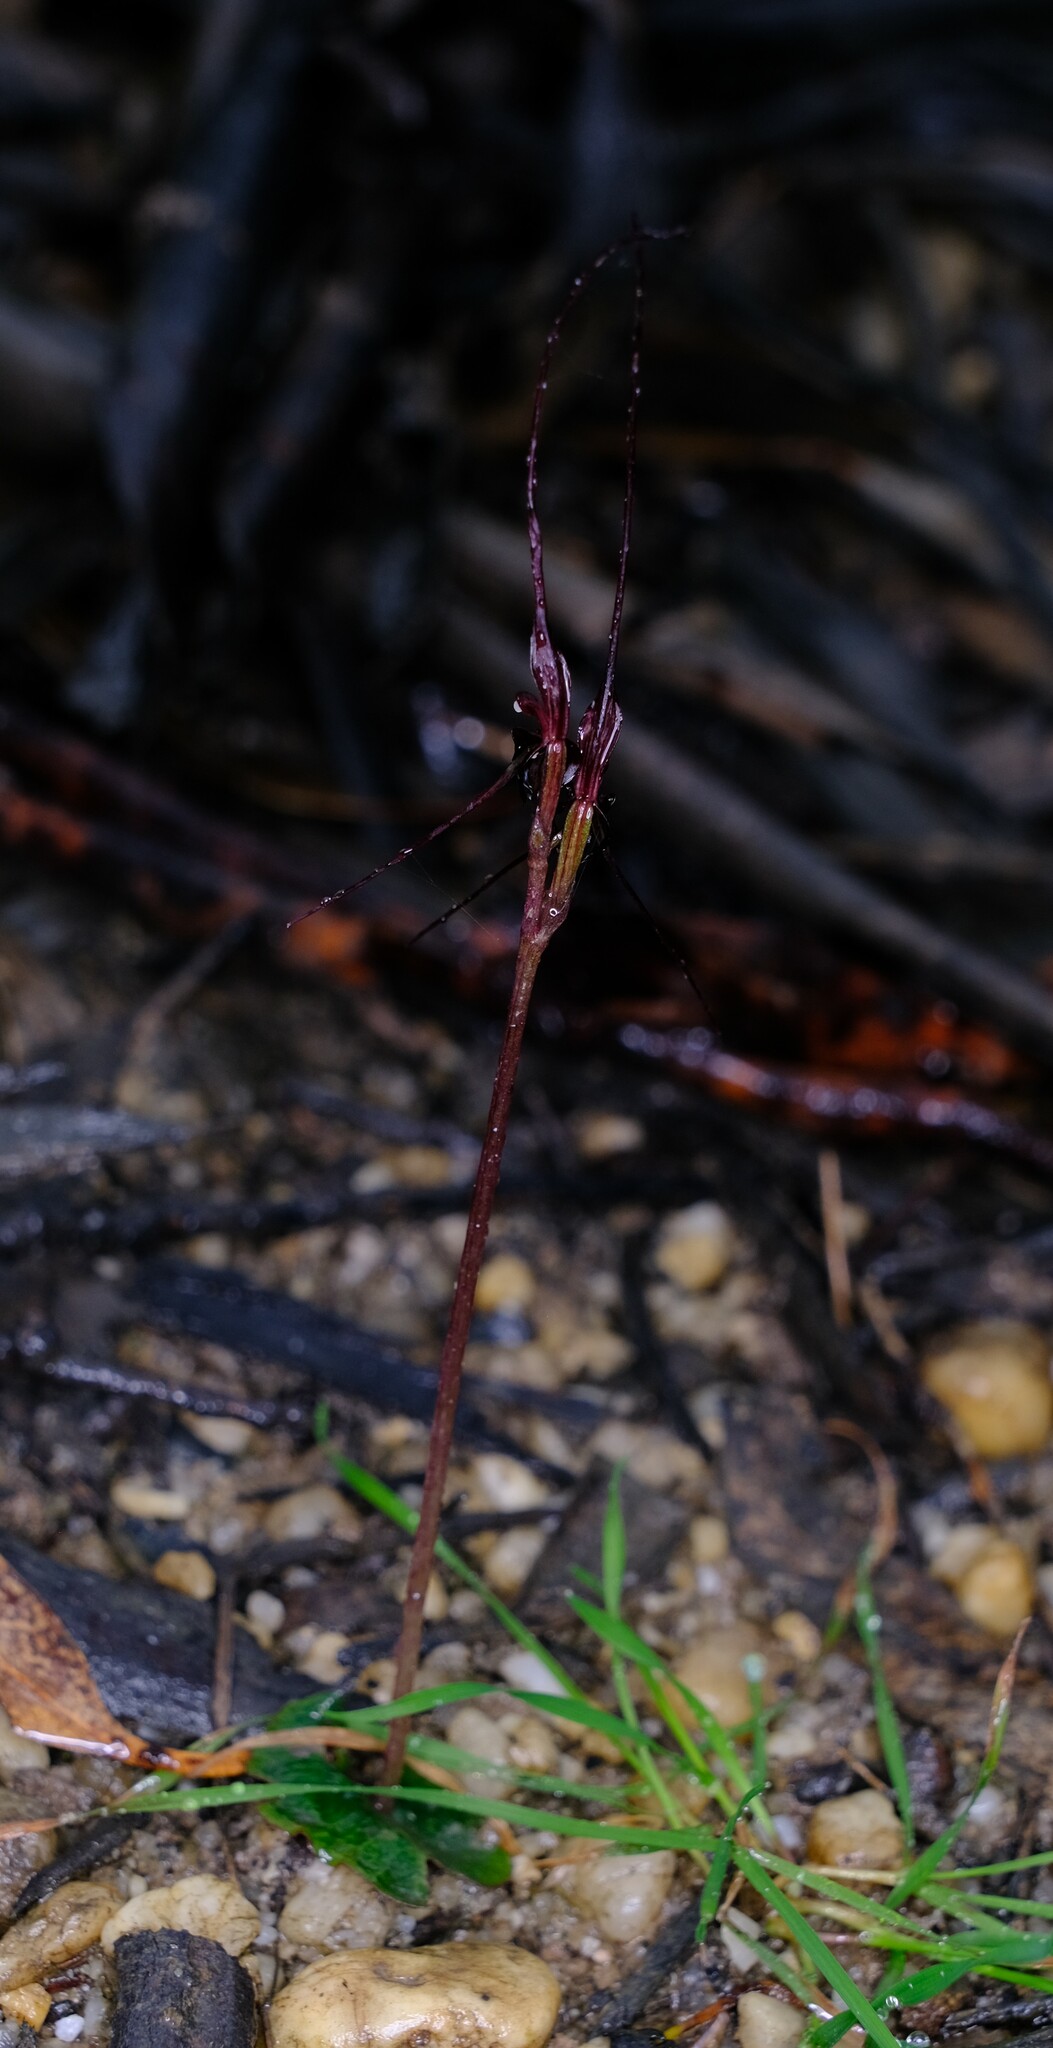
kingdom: Plantae
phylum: Tracheophyta
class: Liliopsida
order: Asparagales
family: Orchidaceae
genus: Acianthus
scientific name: Acianthus caudatus
